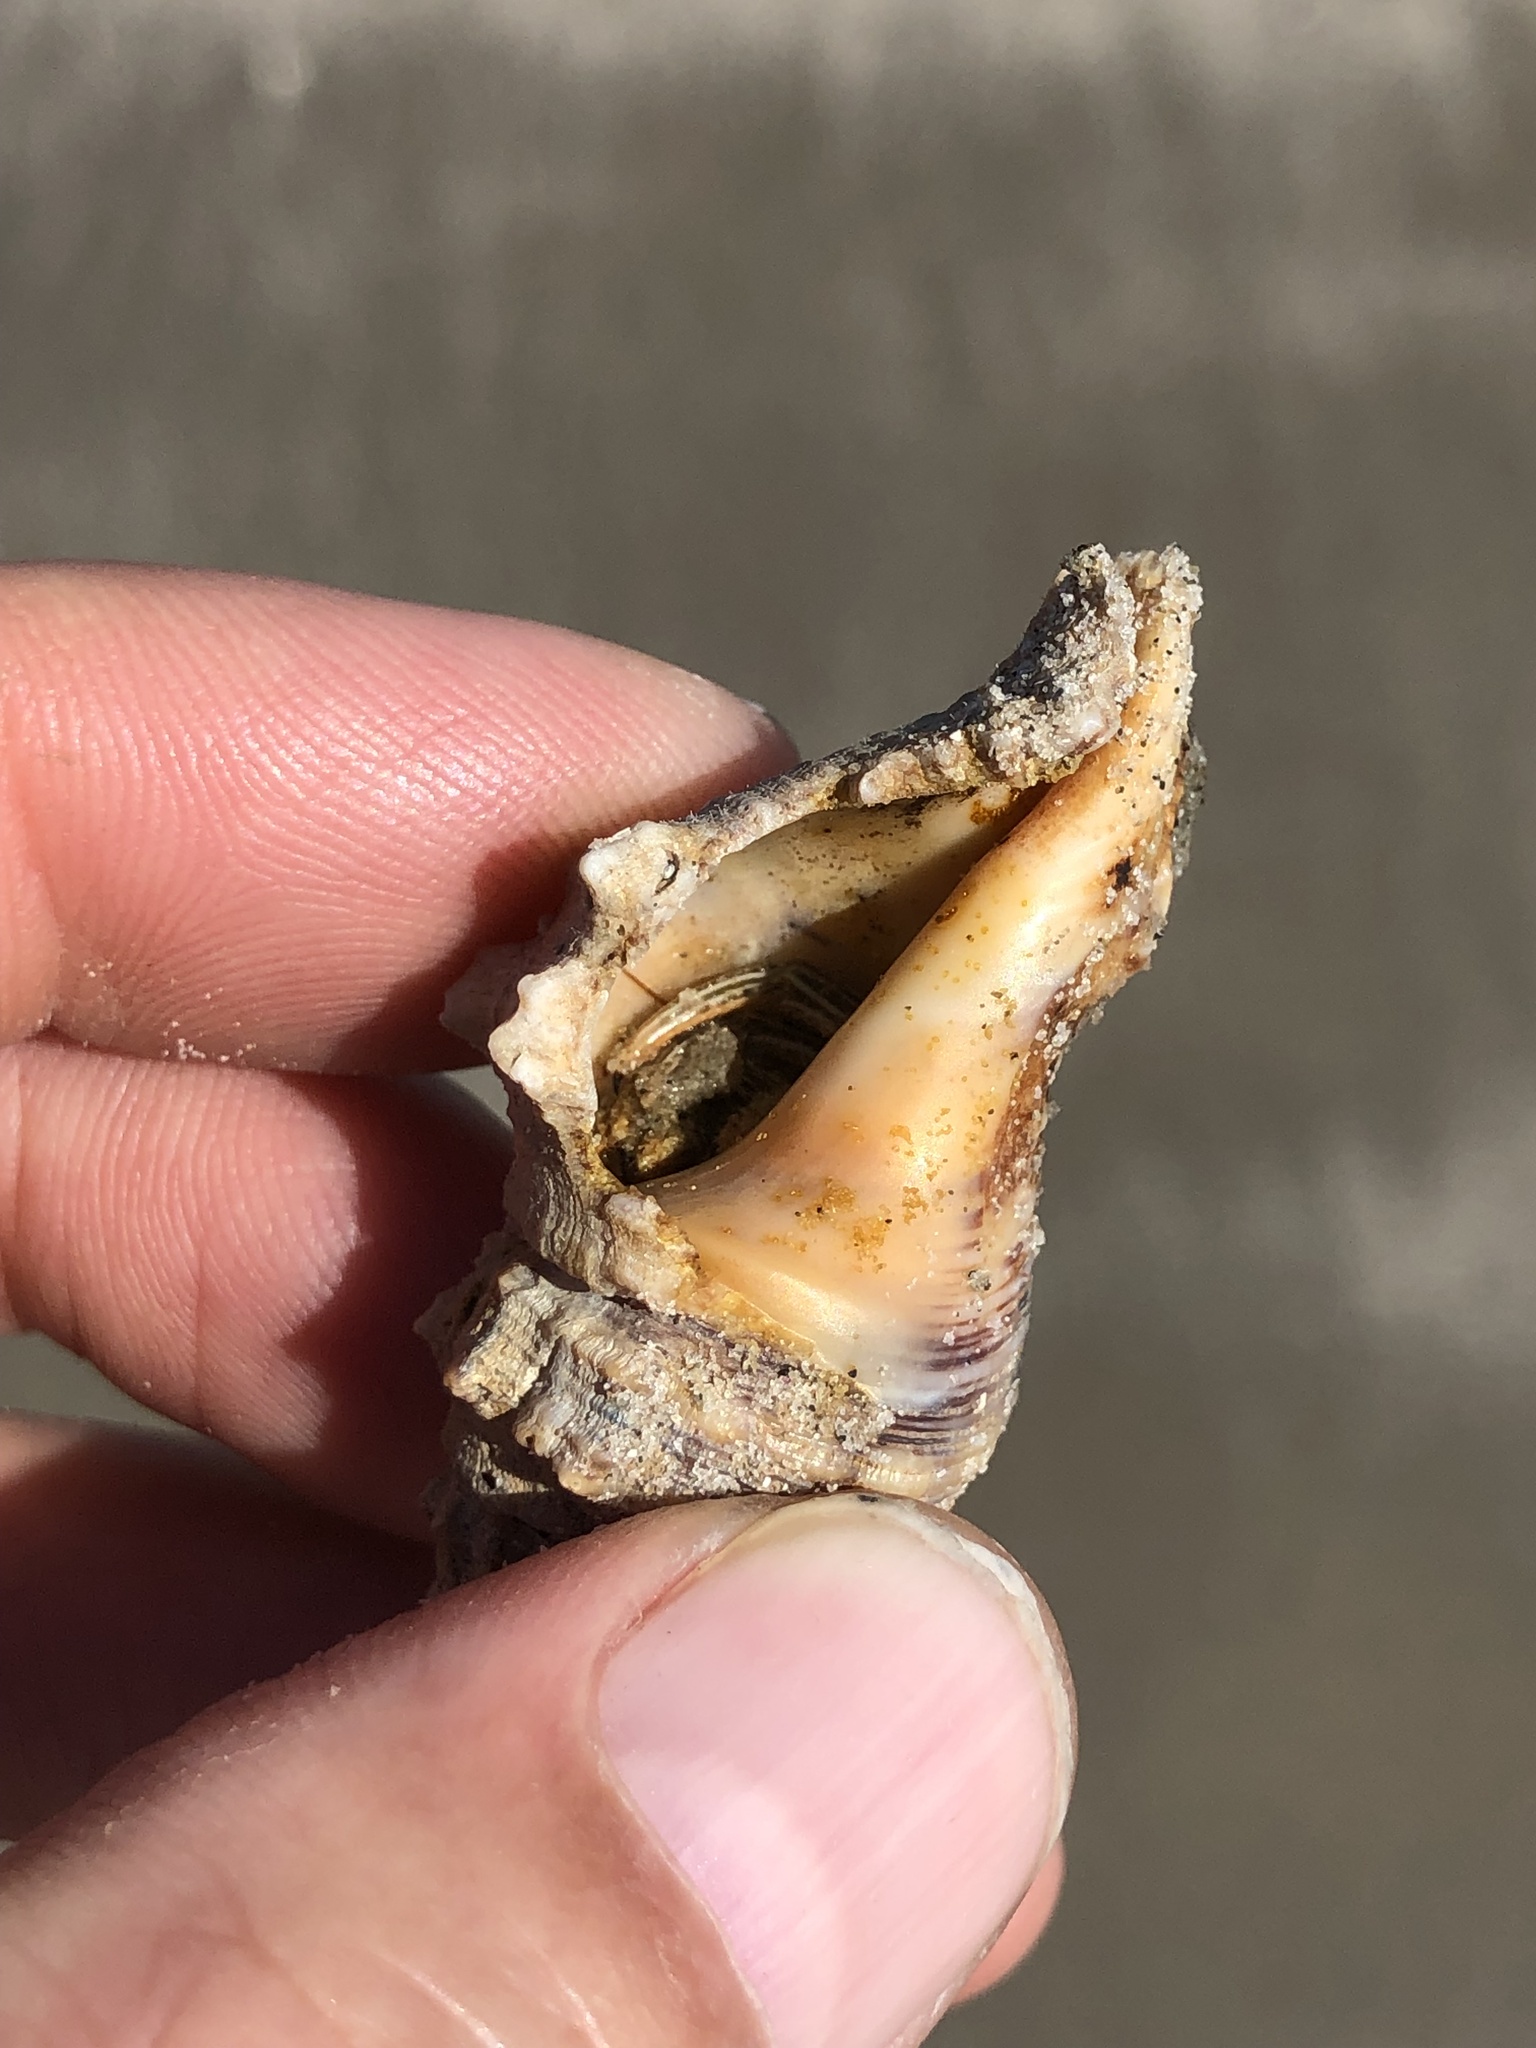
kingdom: Animalia
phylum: Arthropoda
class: Malacostraca
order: Decapoda
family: Diogenidae
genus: Clibanarius
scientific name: Clibanarius vittatus
